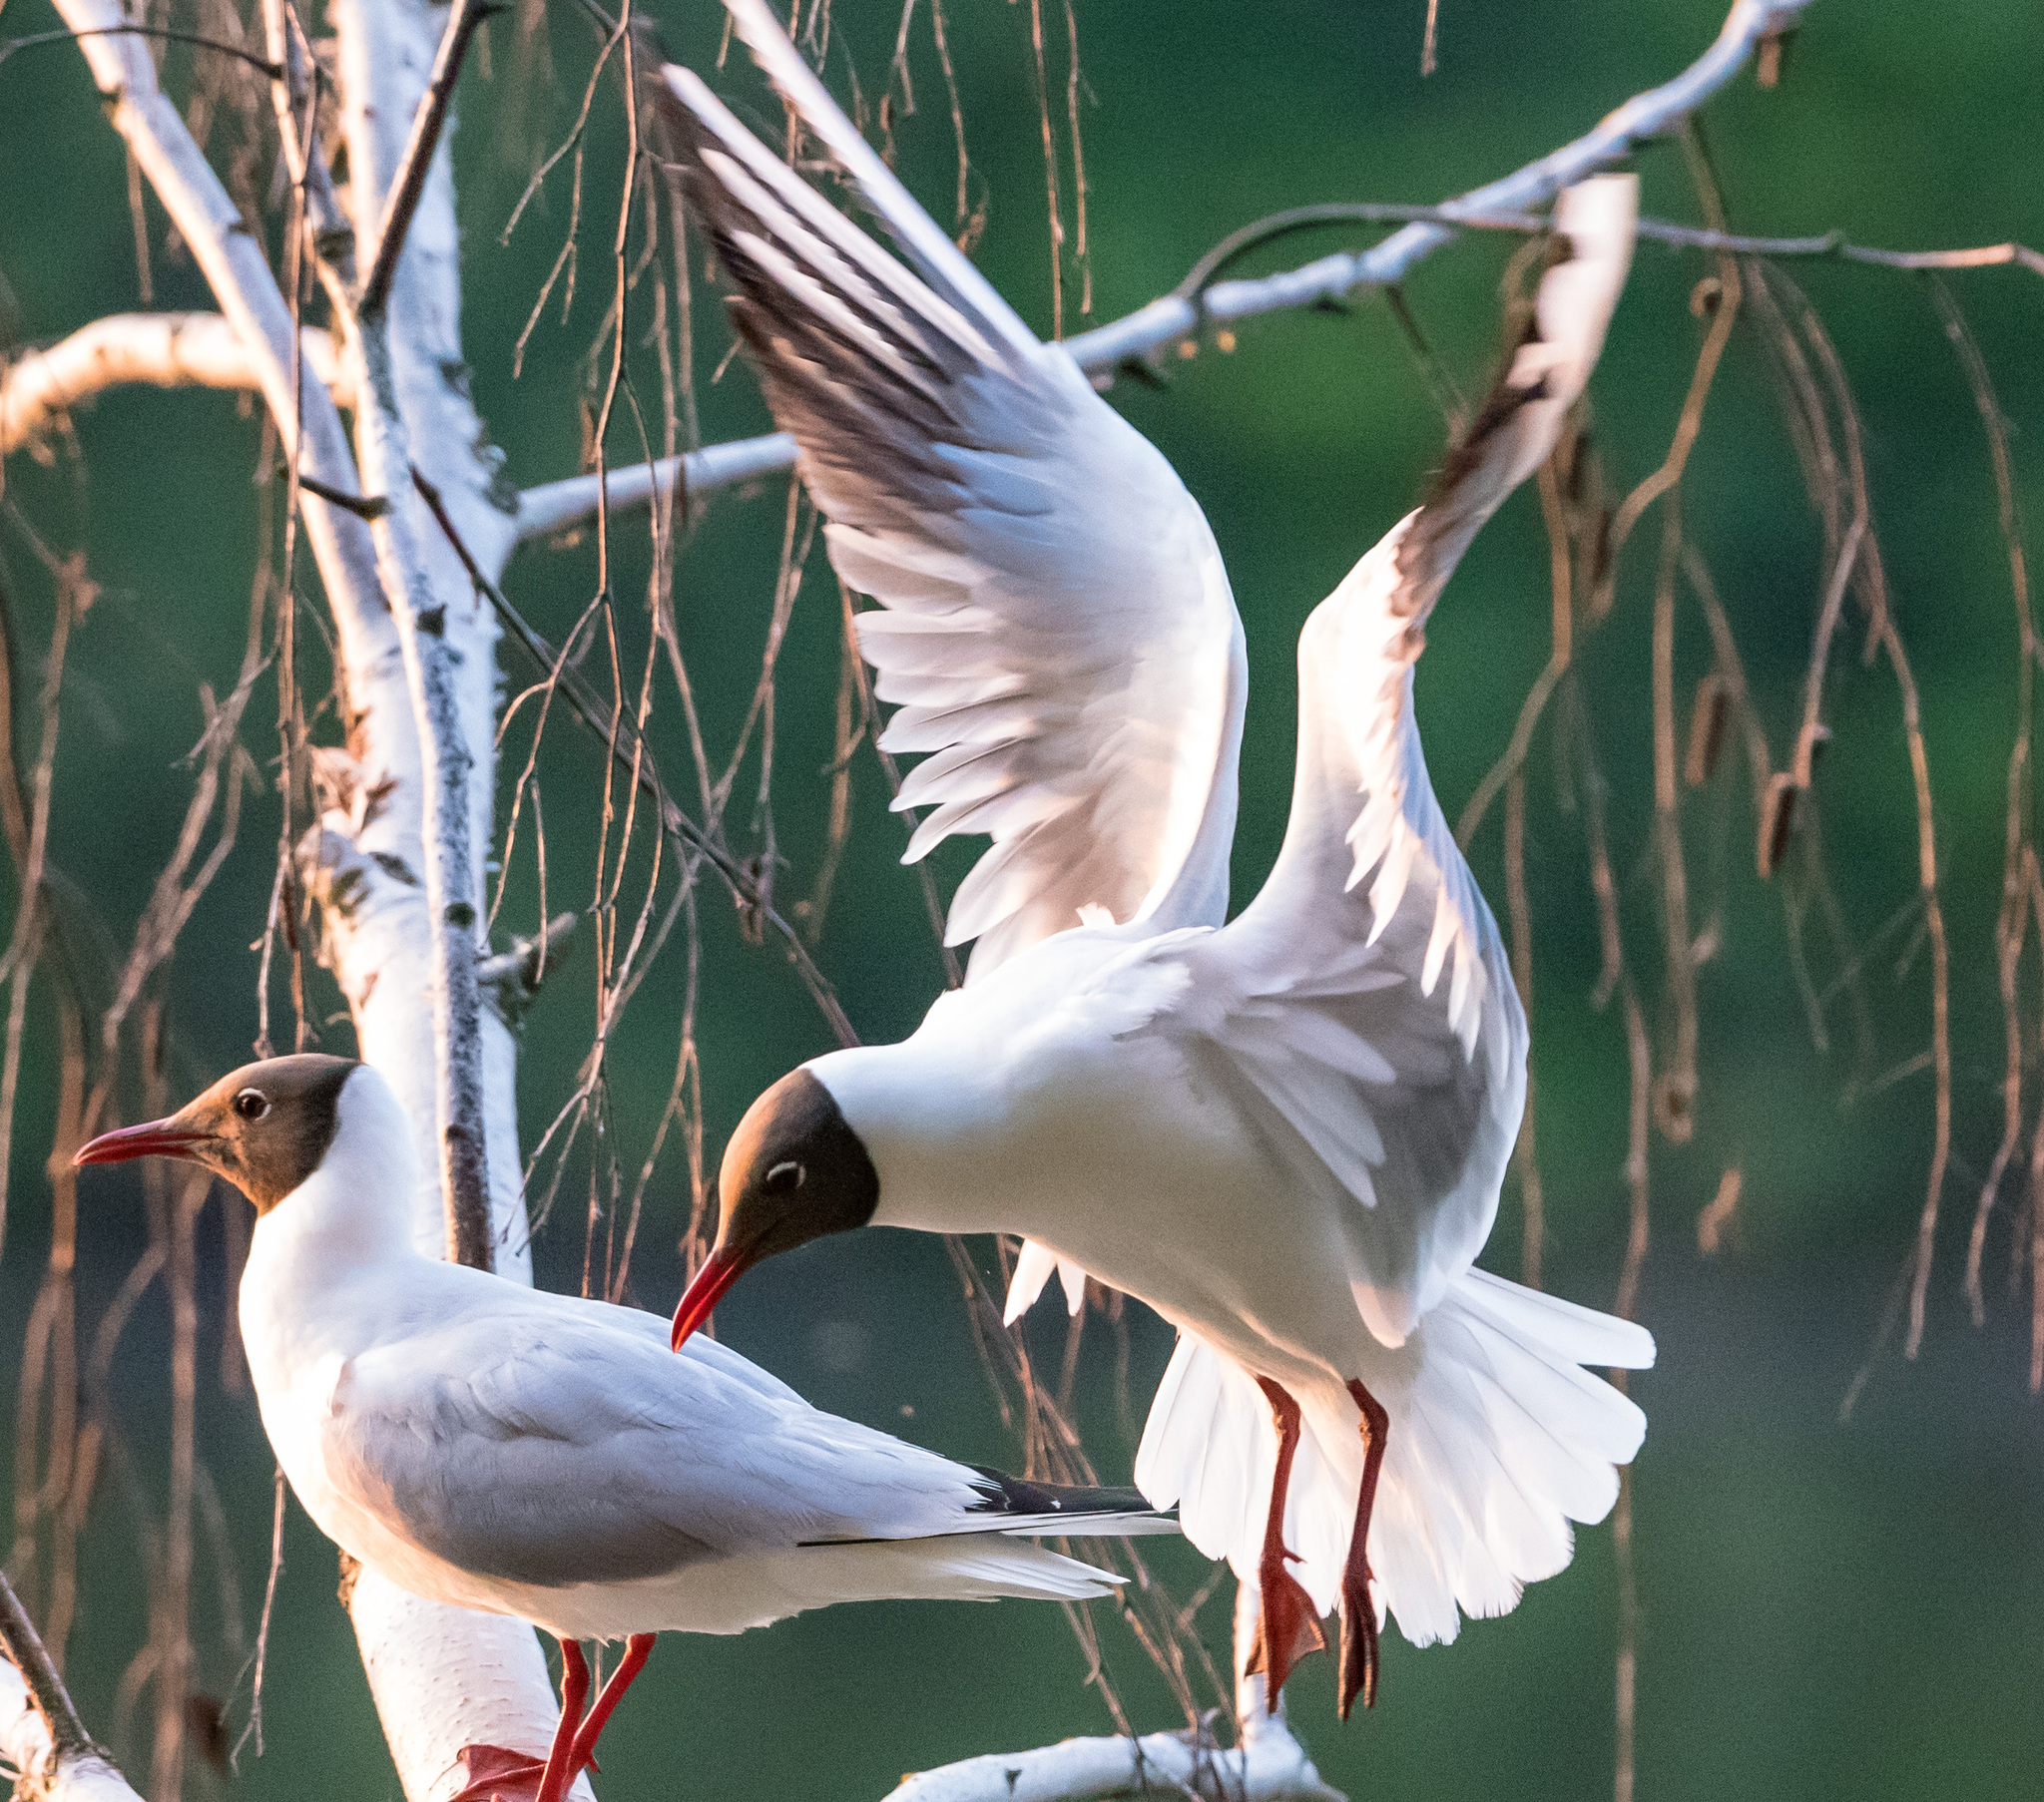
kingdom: Animalia
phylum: Chordata
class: Aves
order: Charadriiformes
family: Laridae
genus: Chroicocephalus
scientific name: Chroicocephalus ridibundus
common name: Black-headed gull
